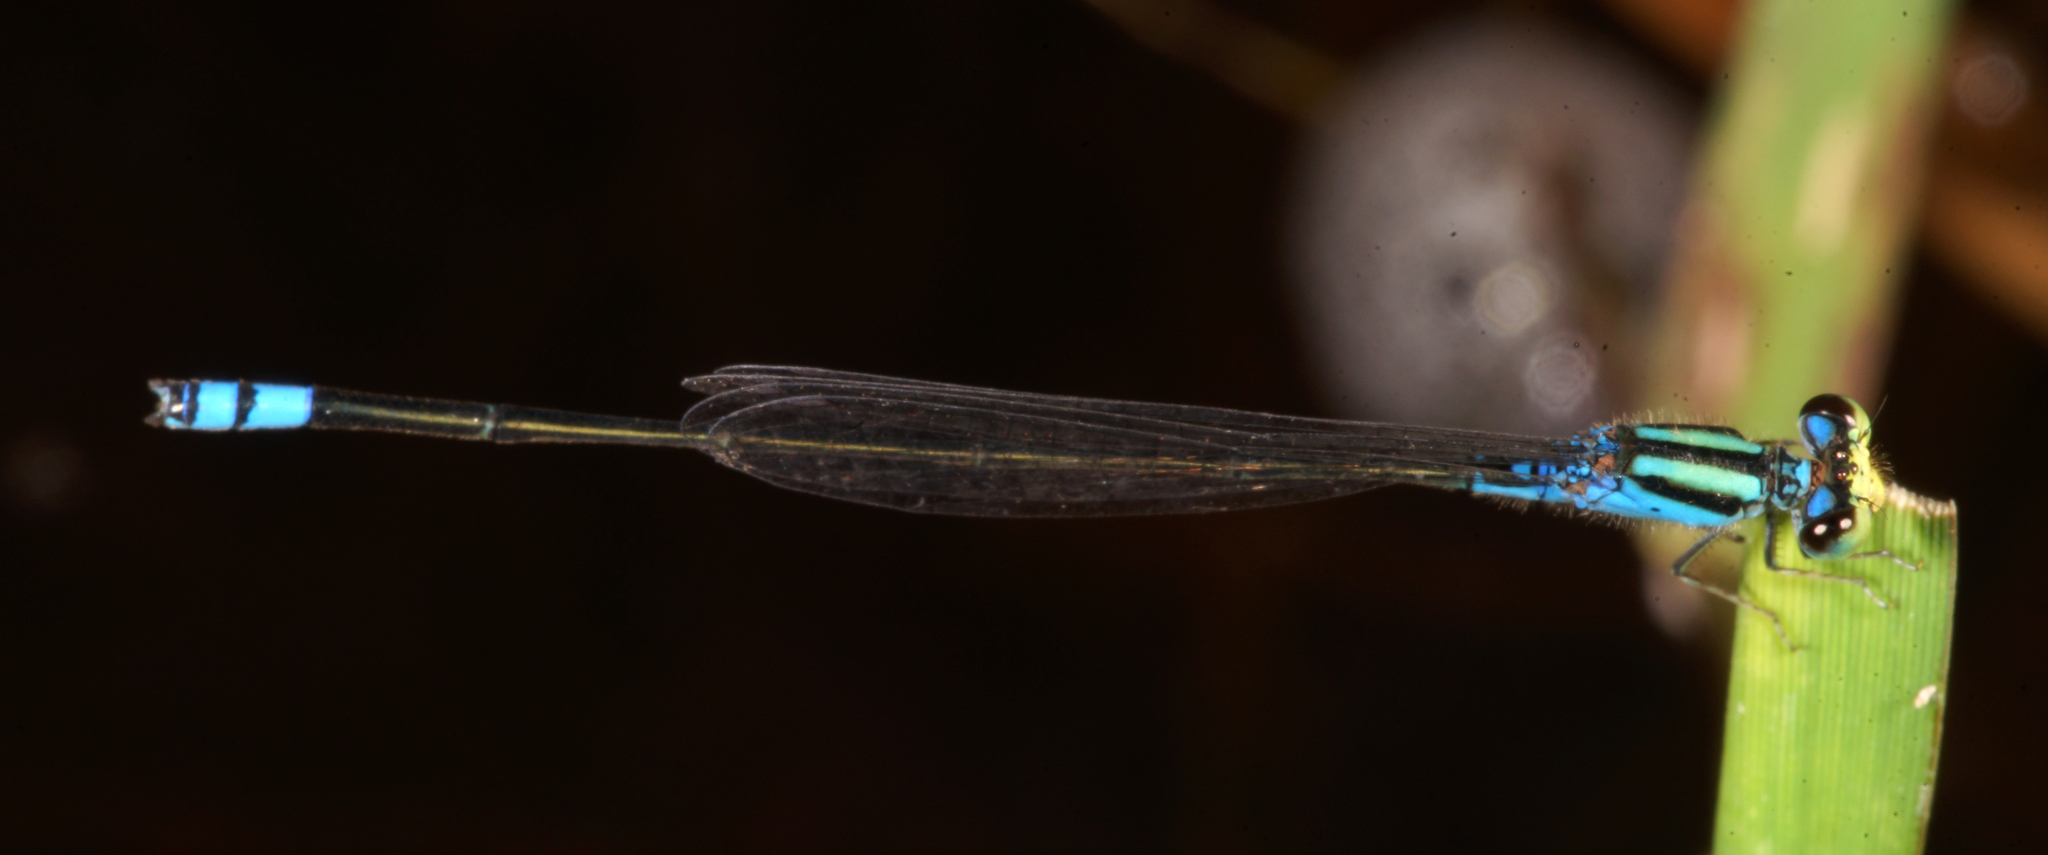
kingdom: Animalia
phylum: Arthropoda
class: Insecta
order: Odonata
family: Coenagrionidae
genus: Pseudagrion
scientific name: Pseudagrion williamsoni
